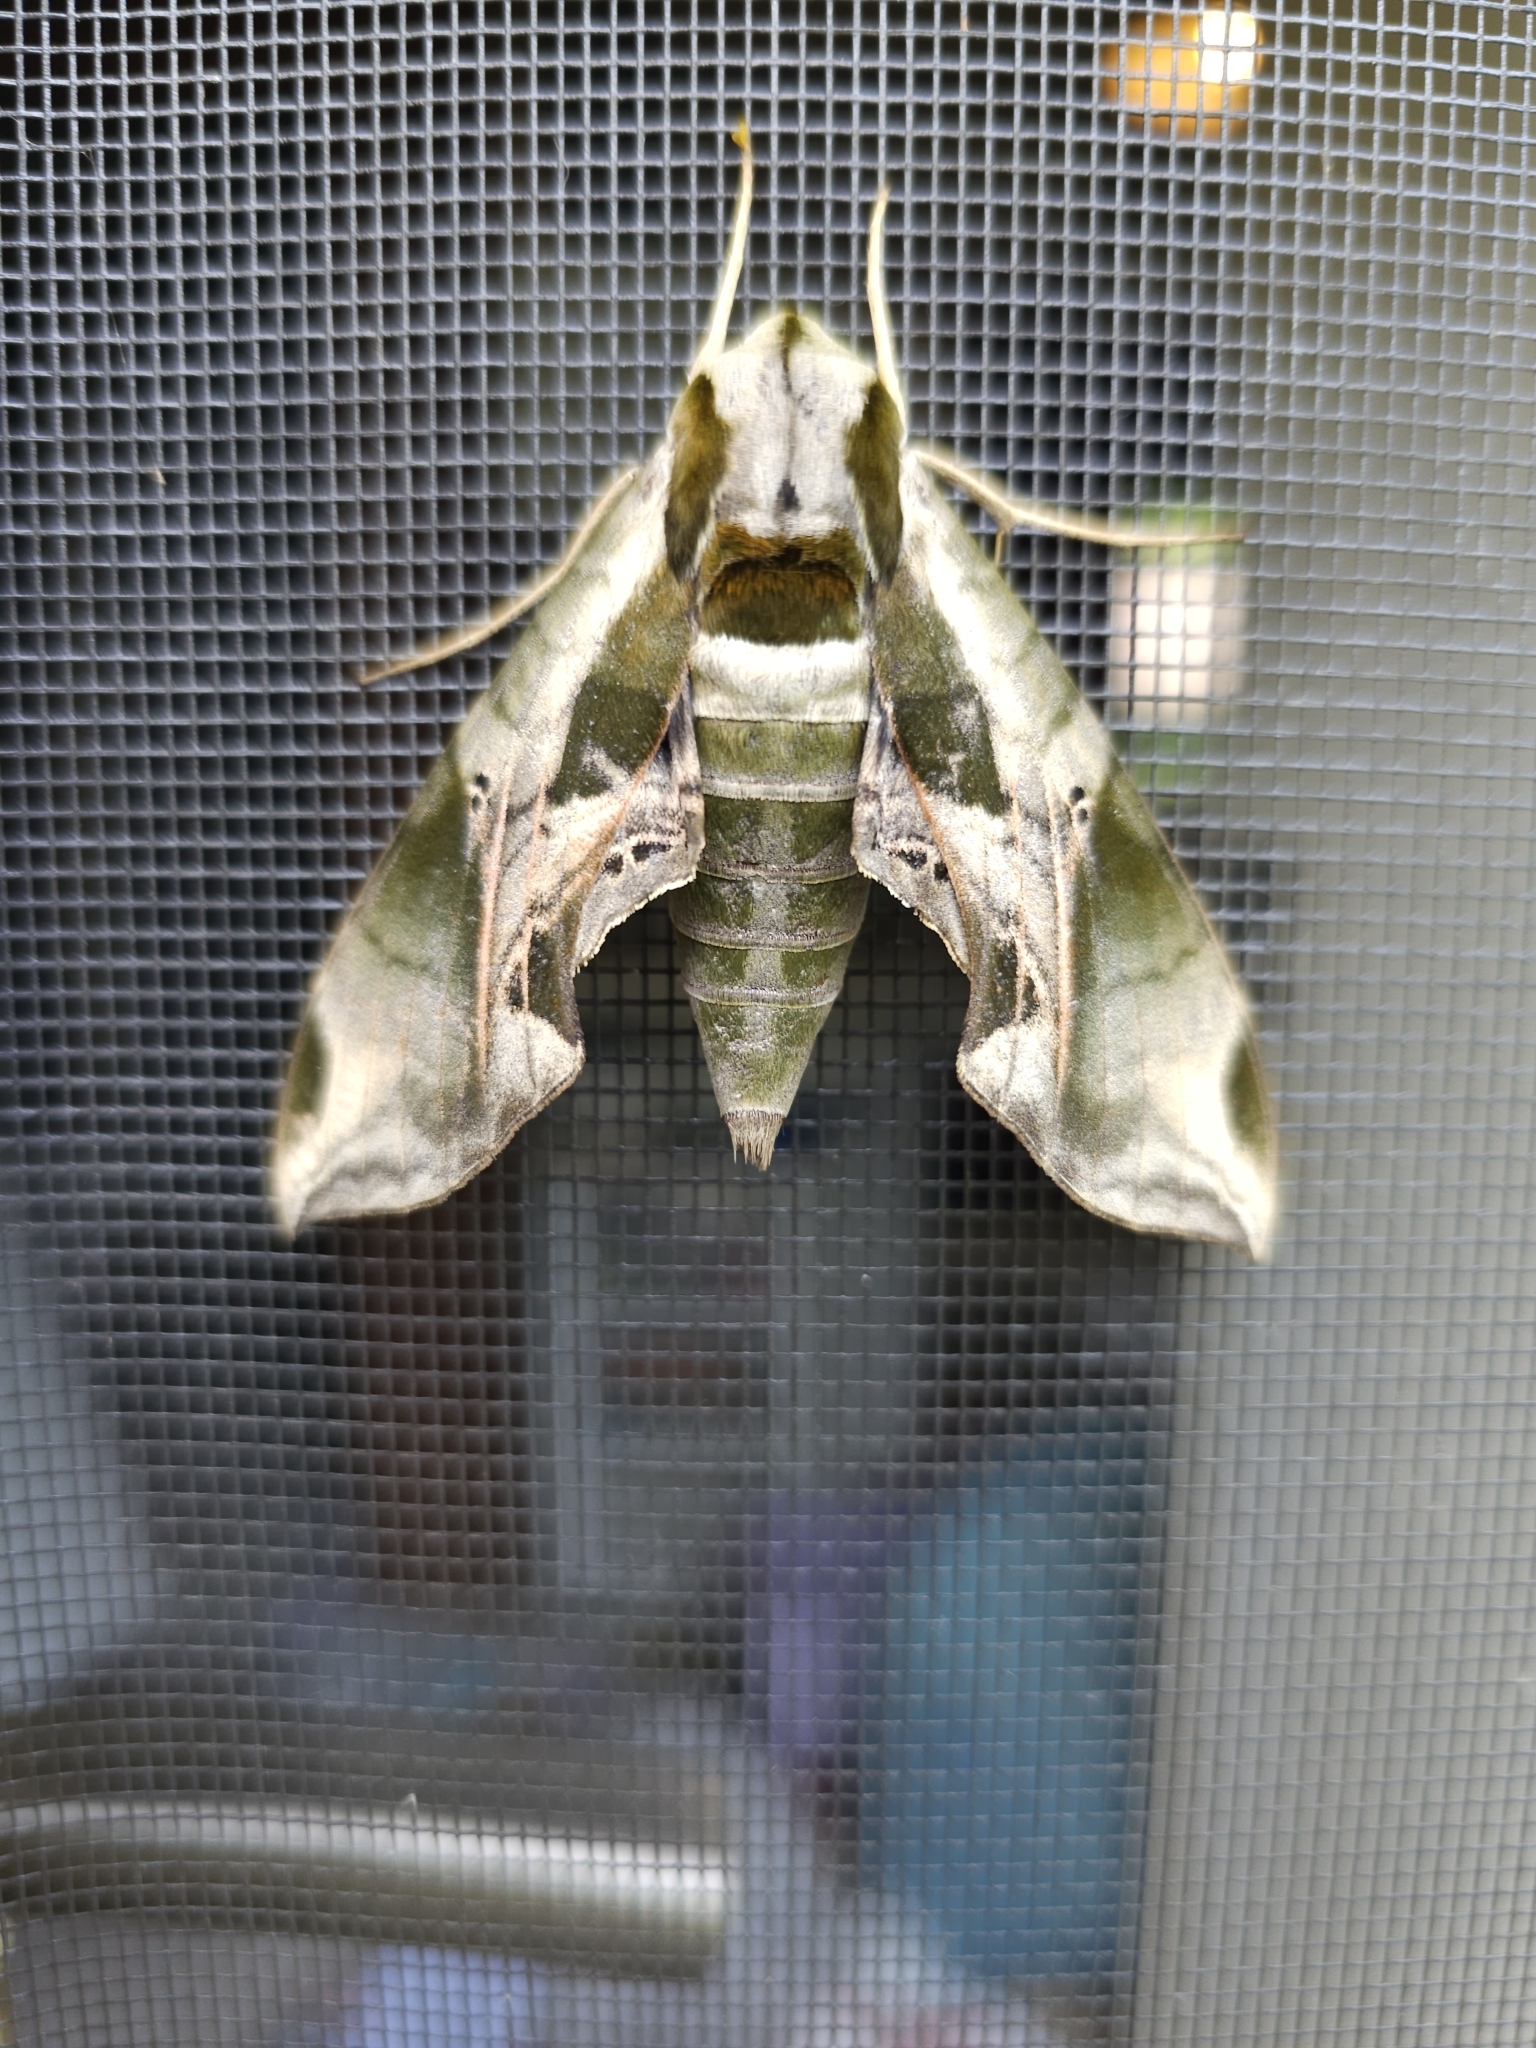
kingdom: Animalia
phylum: Arthropoda
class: Insecta
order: Lepidoptera
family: Sphingidae
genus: Eumorpha
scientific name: Eumorpha pandorus
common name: Pandora sphinx
